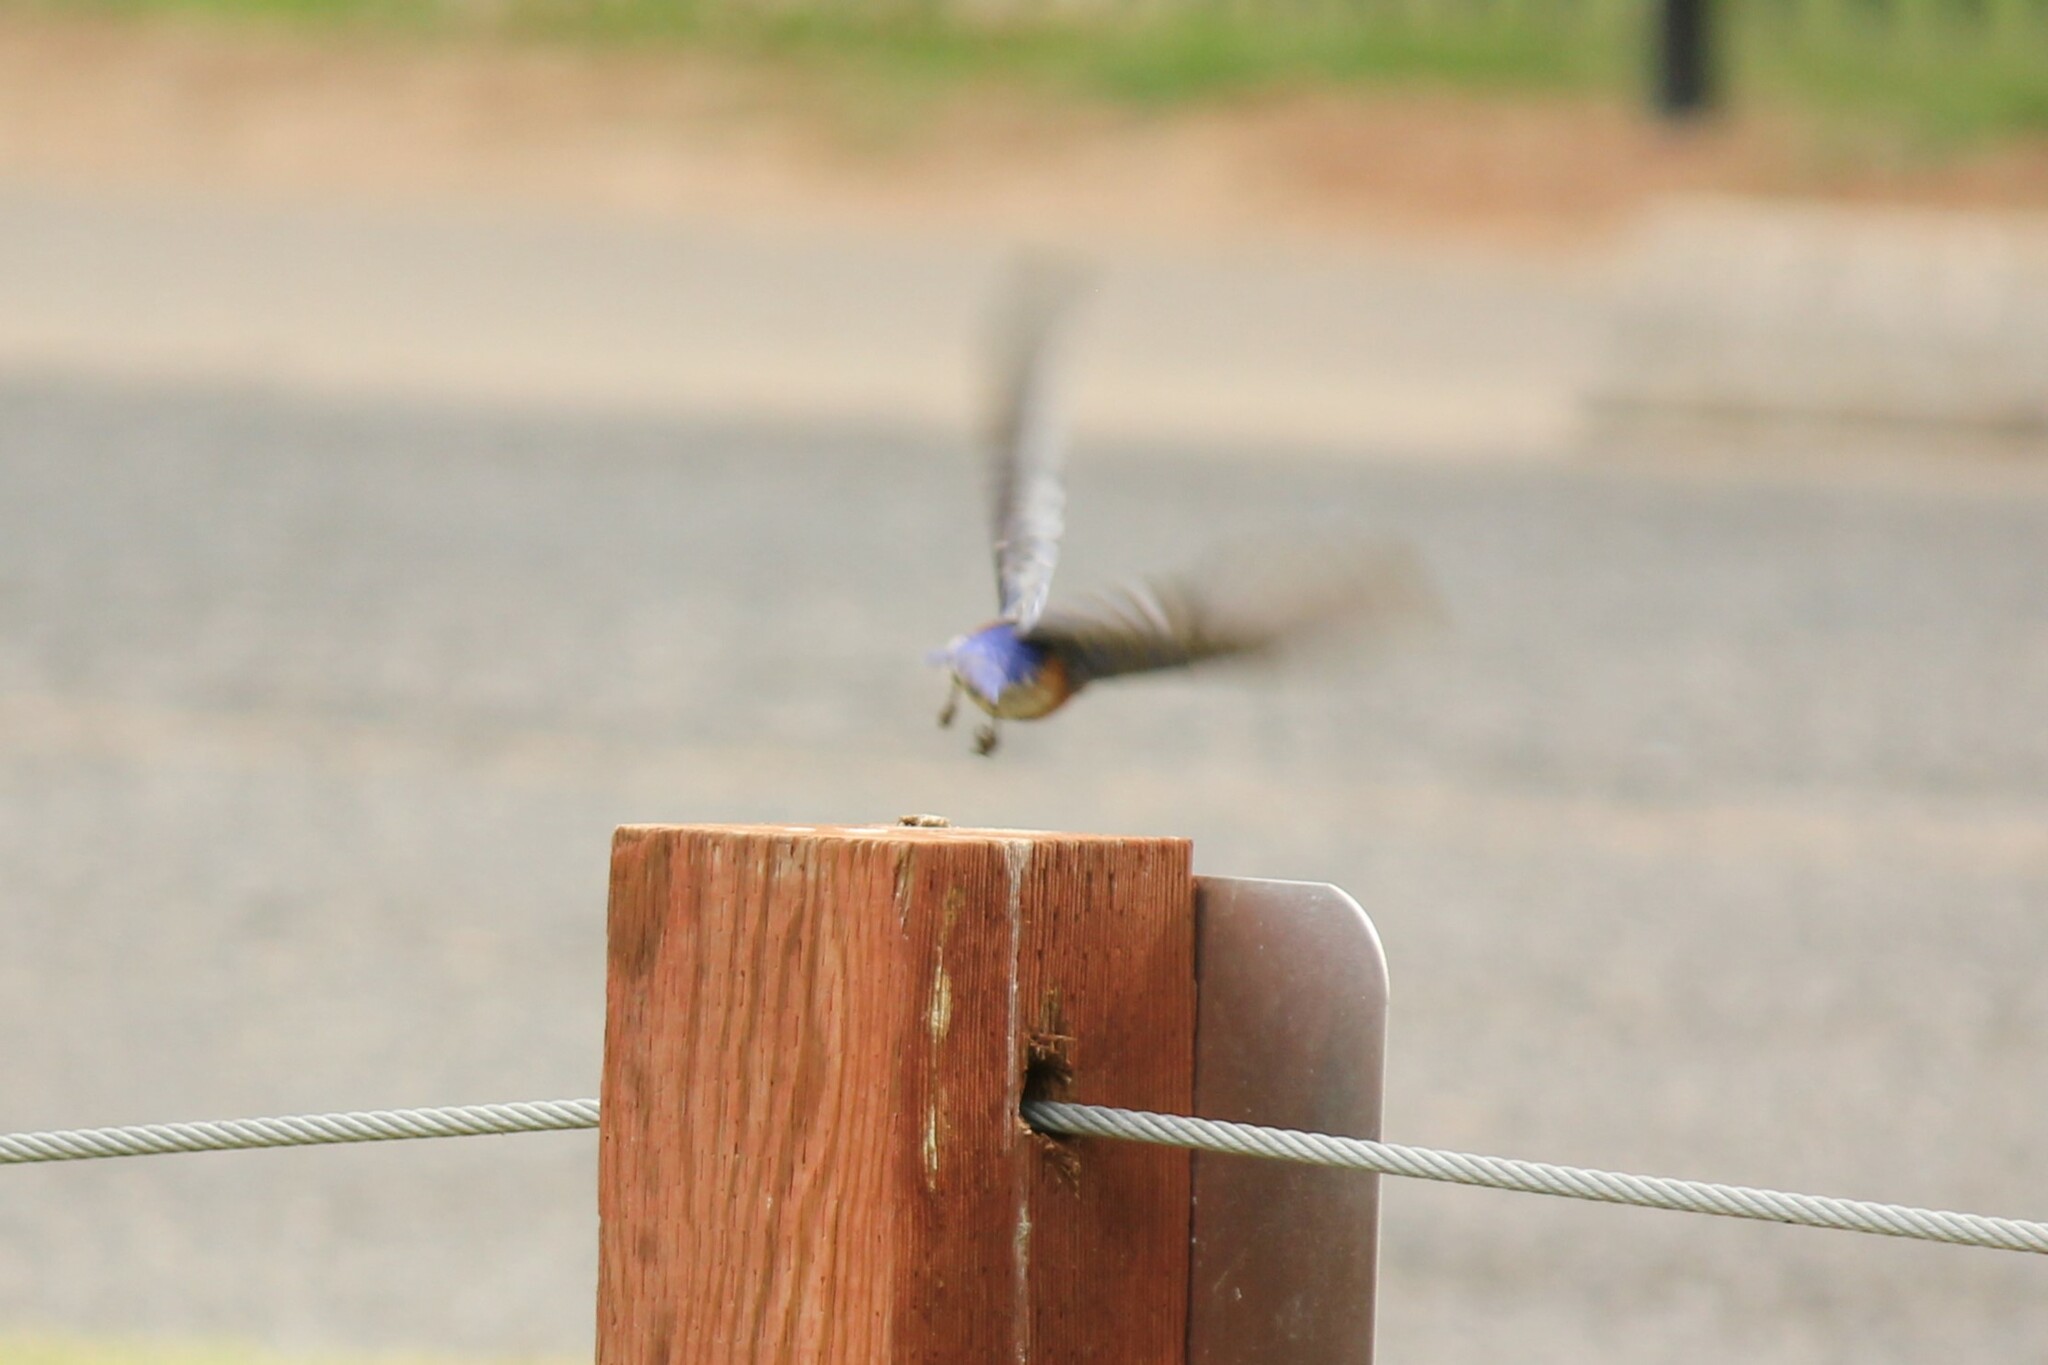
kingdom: Animalia
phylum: Chordata
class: Aves
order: Passeriformes
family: Turdidae
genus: Sialia
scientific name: Sialia mexicana
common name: Western bluebird
